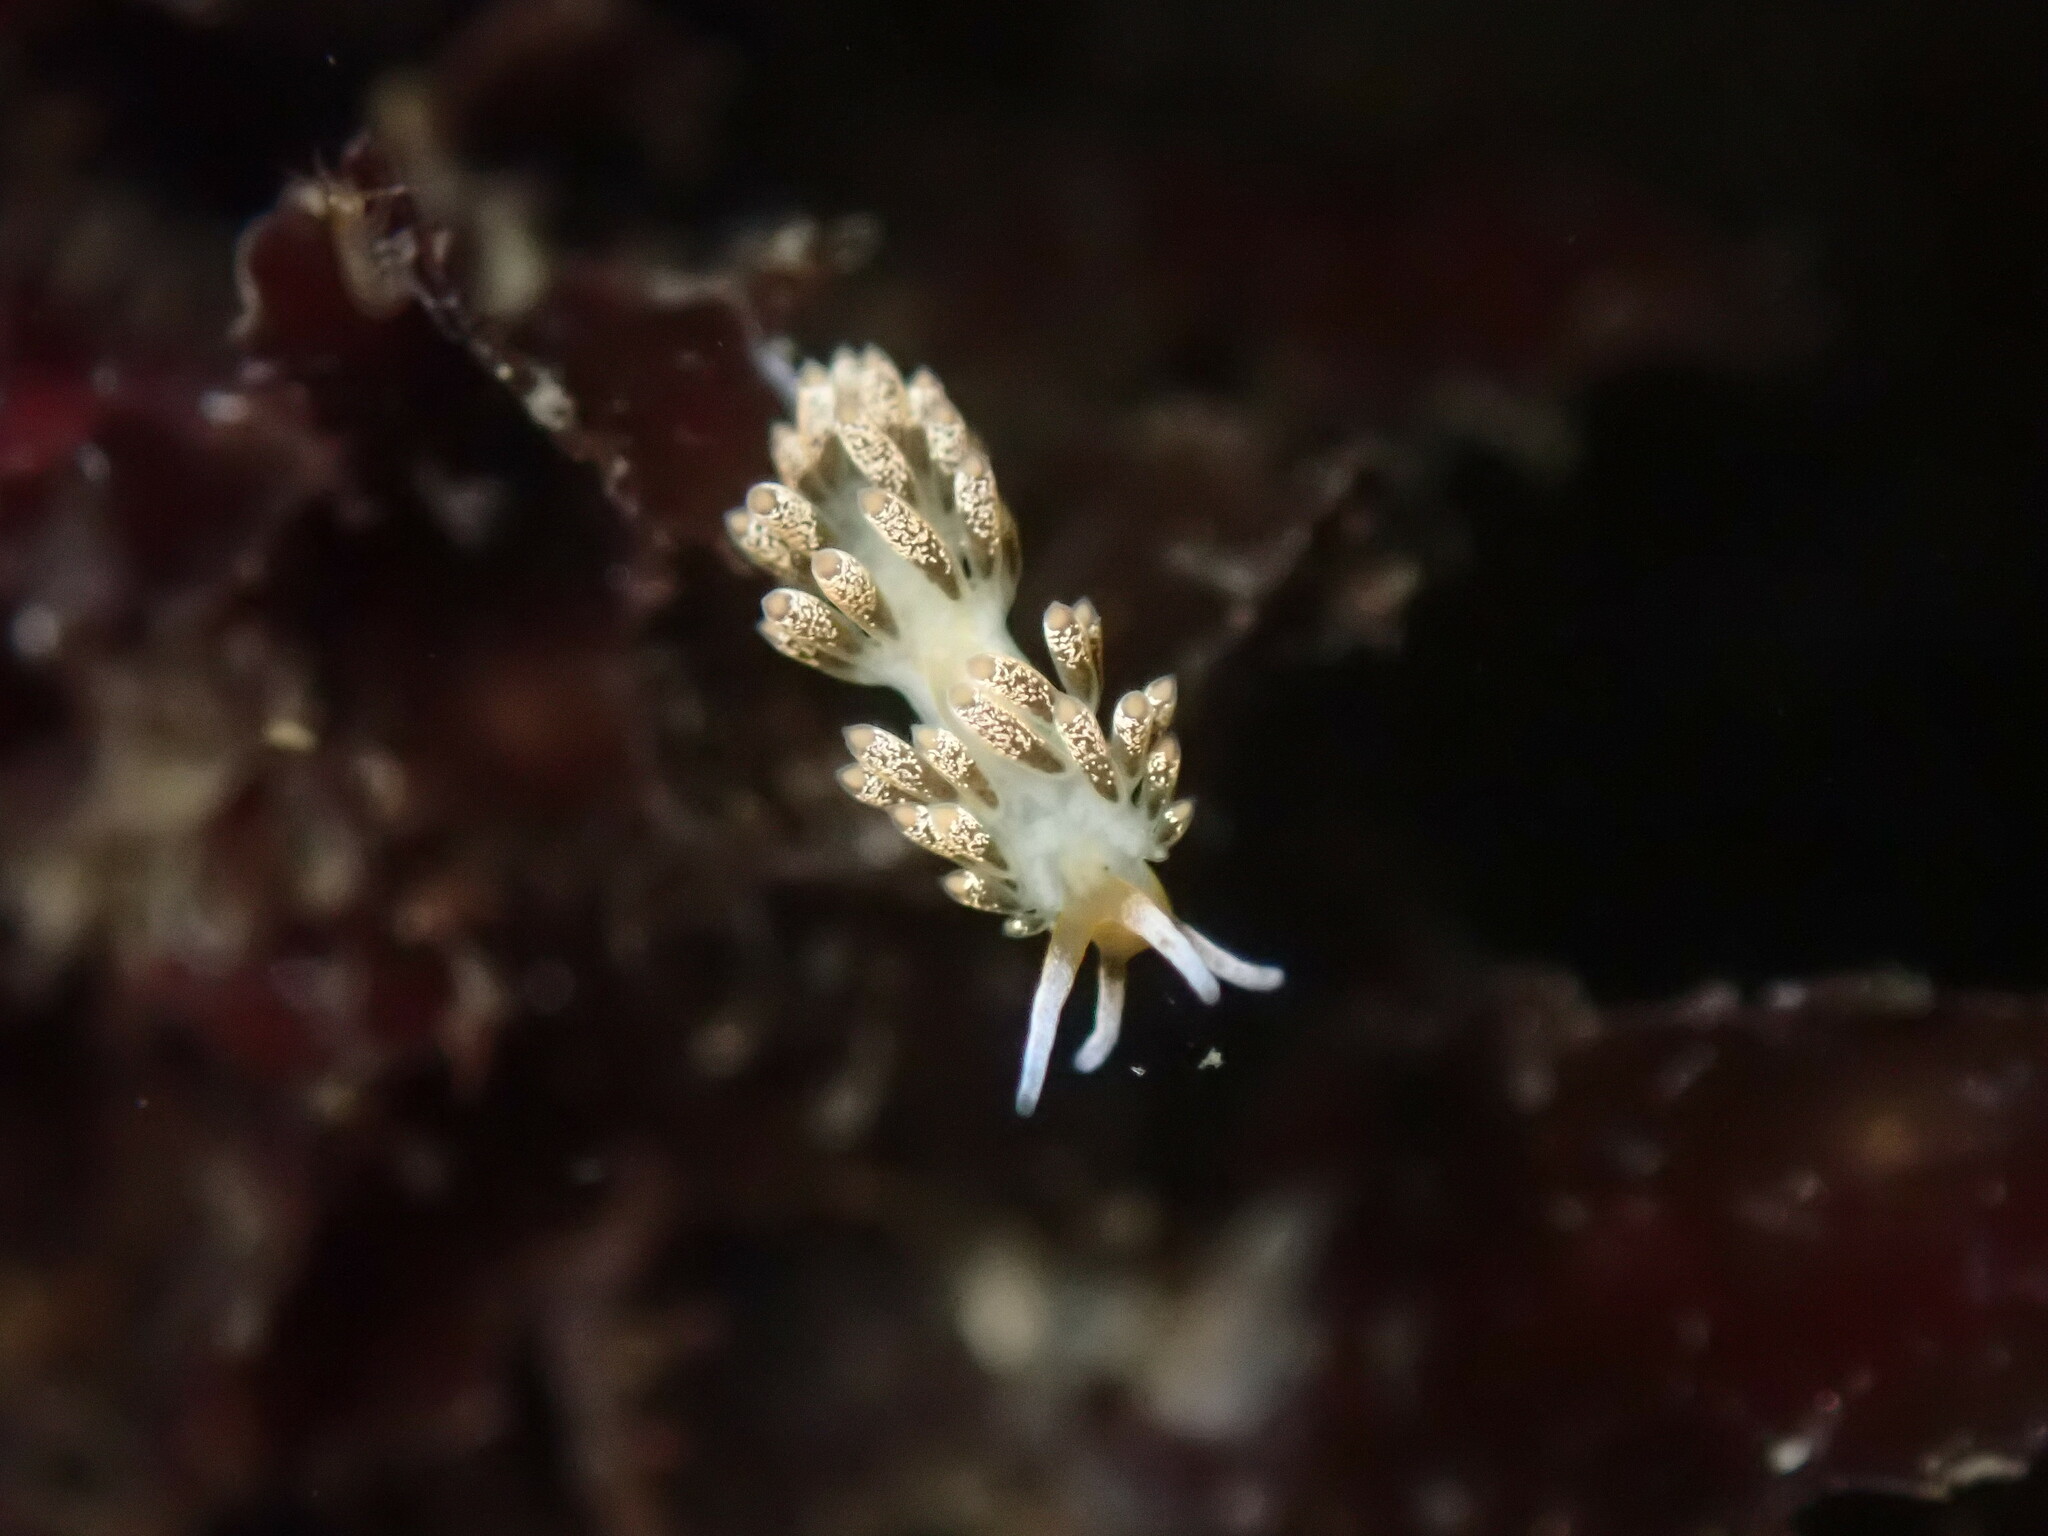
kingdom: Animalia
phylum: Mollusca
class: Gastropoda
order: Nudibranchia
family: Trinchesiidae
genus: Diaphoreolis
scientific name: Diaphoreolis flavovulta
